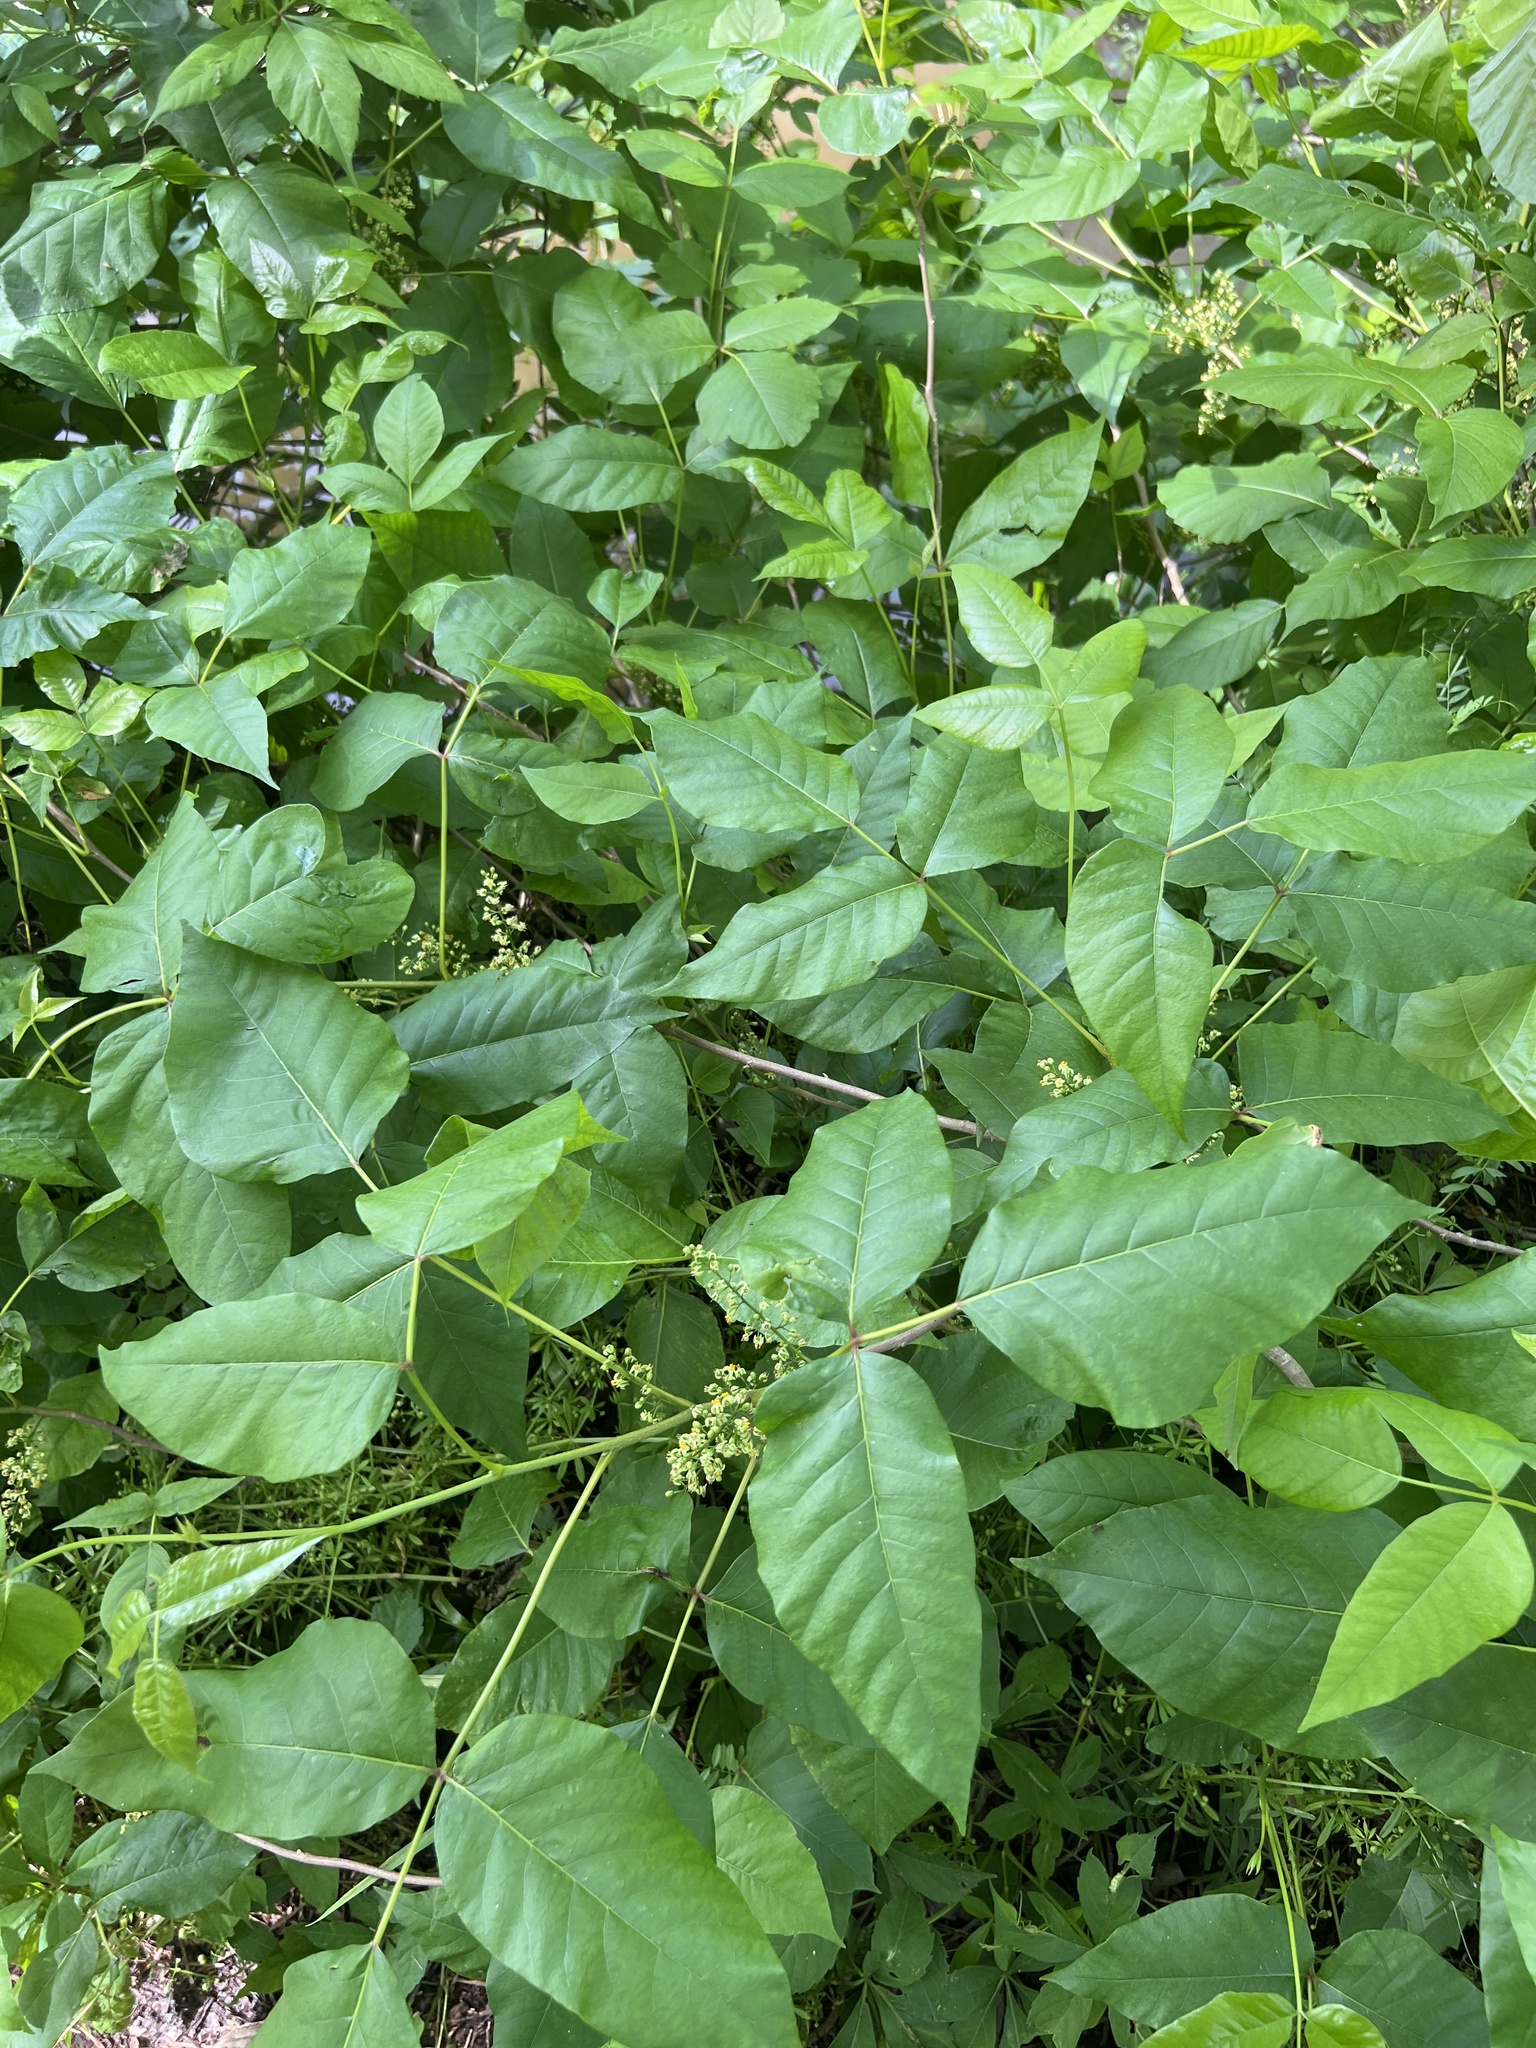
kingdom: Plantae
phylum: Tracheophyta
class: Magnoliopsida
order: Sapindales
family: Anacardiaceae
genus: Toxicodendron
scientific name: Toxicodendron radicans
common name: Poison ivy
